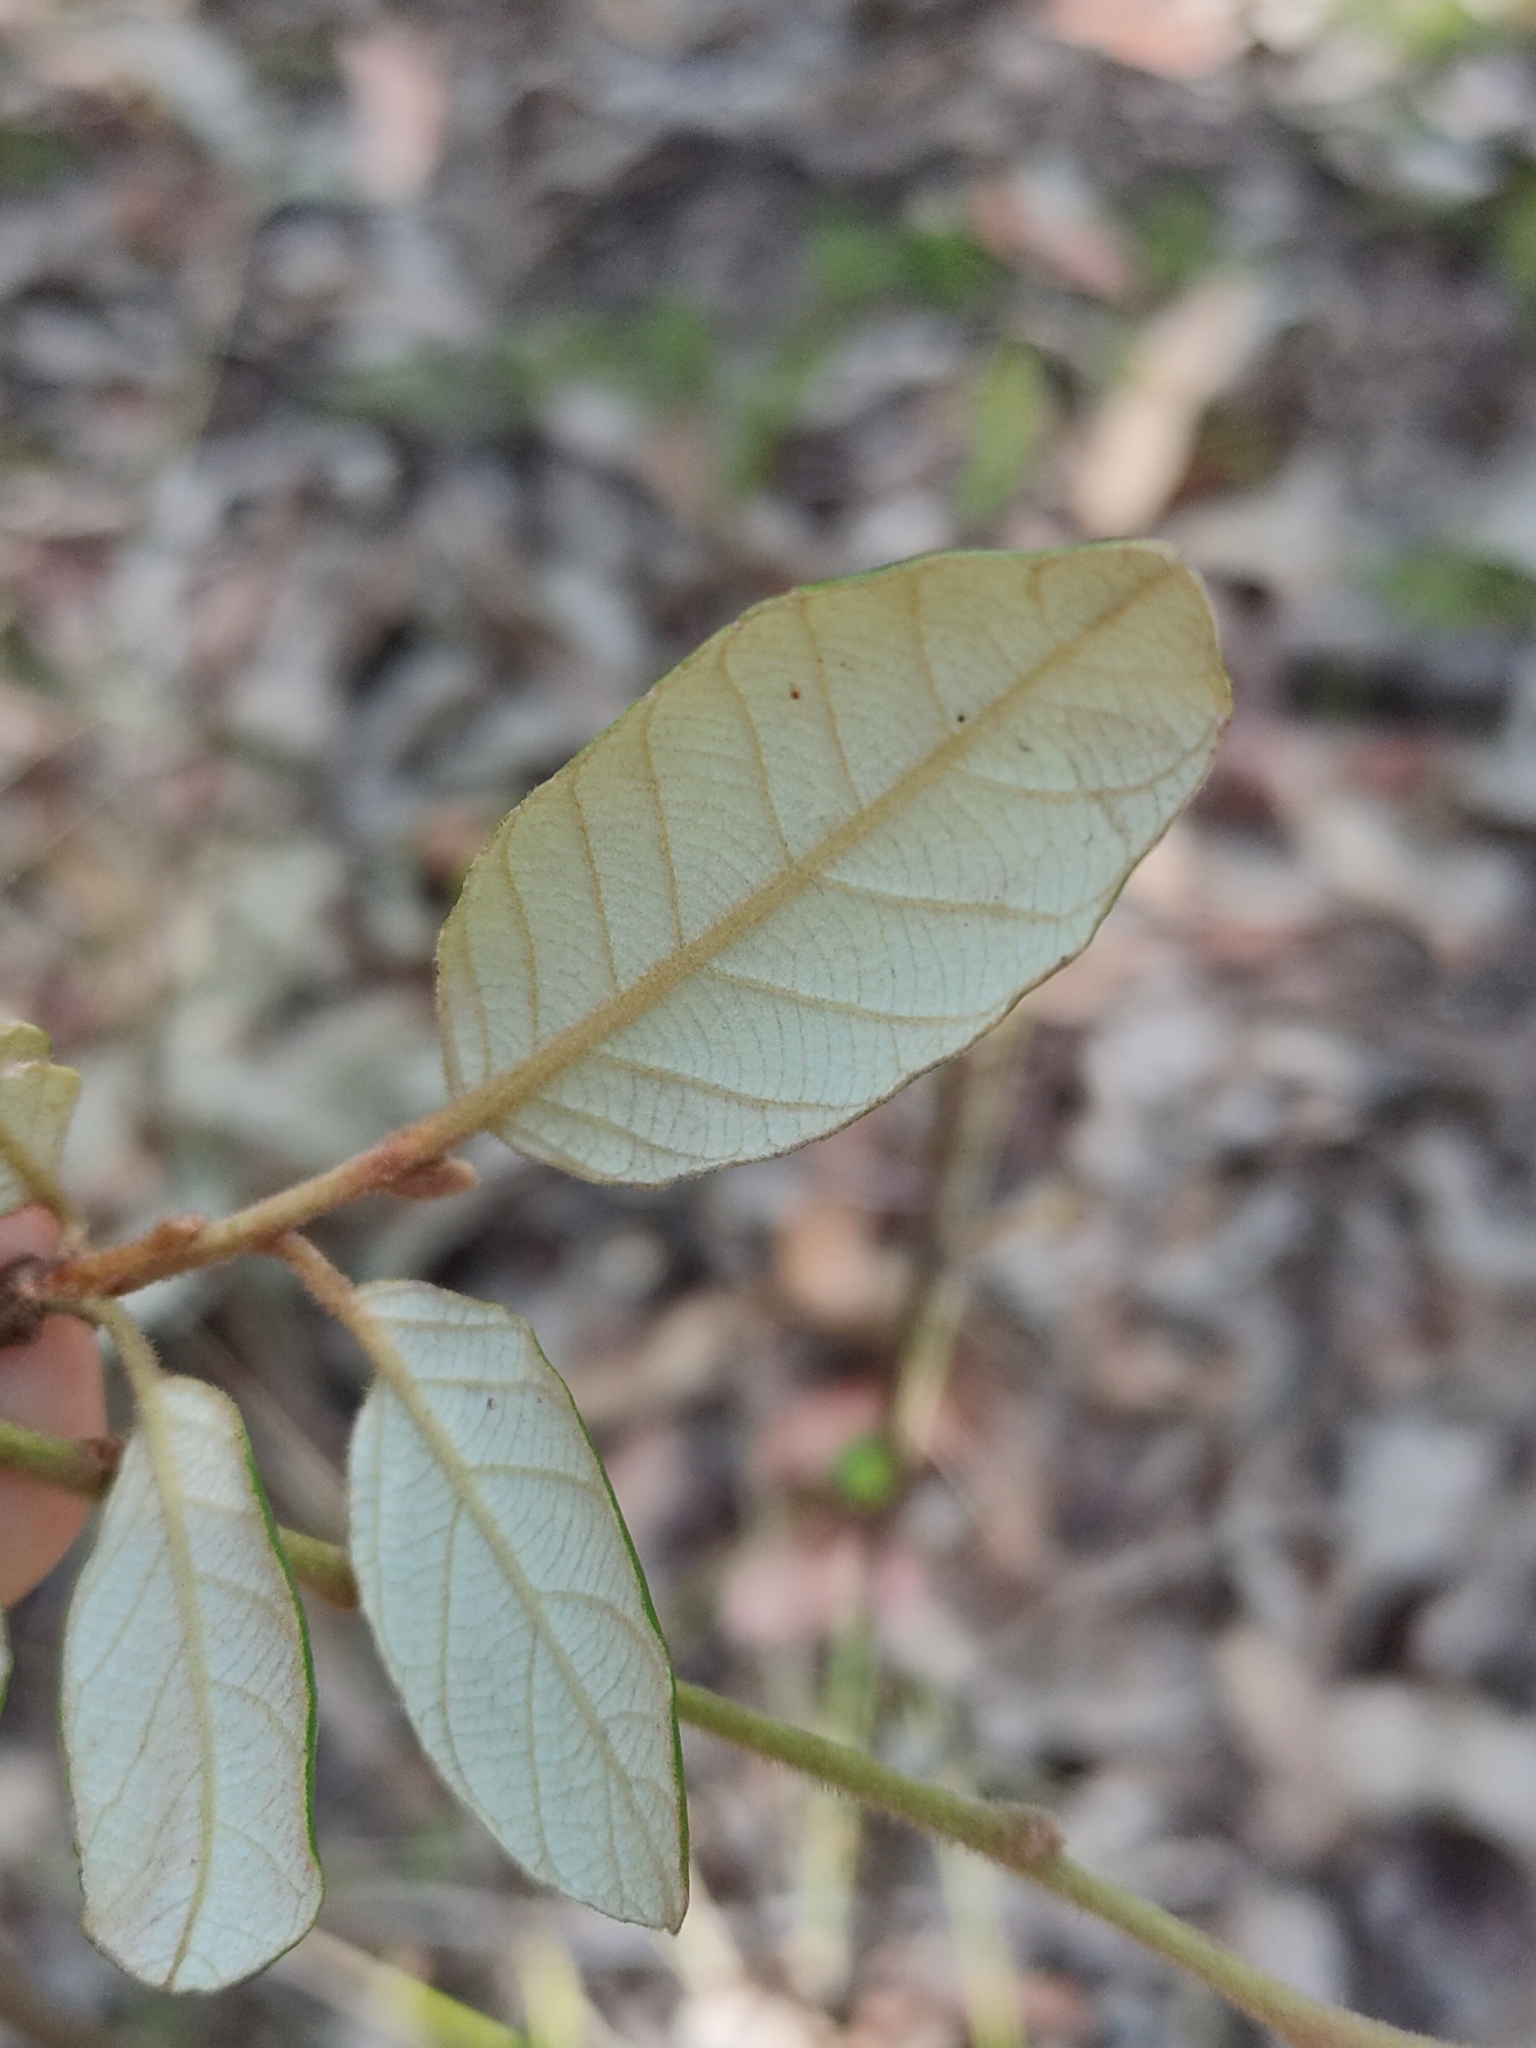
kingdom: Plantae
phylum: Tracheophyta
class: Magnoliopsida
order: Rosales
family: Rhamnaceae
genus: Alphitonia
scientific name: Alphitonia excelsa
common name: Red ash
